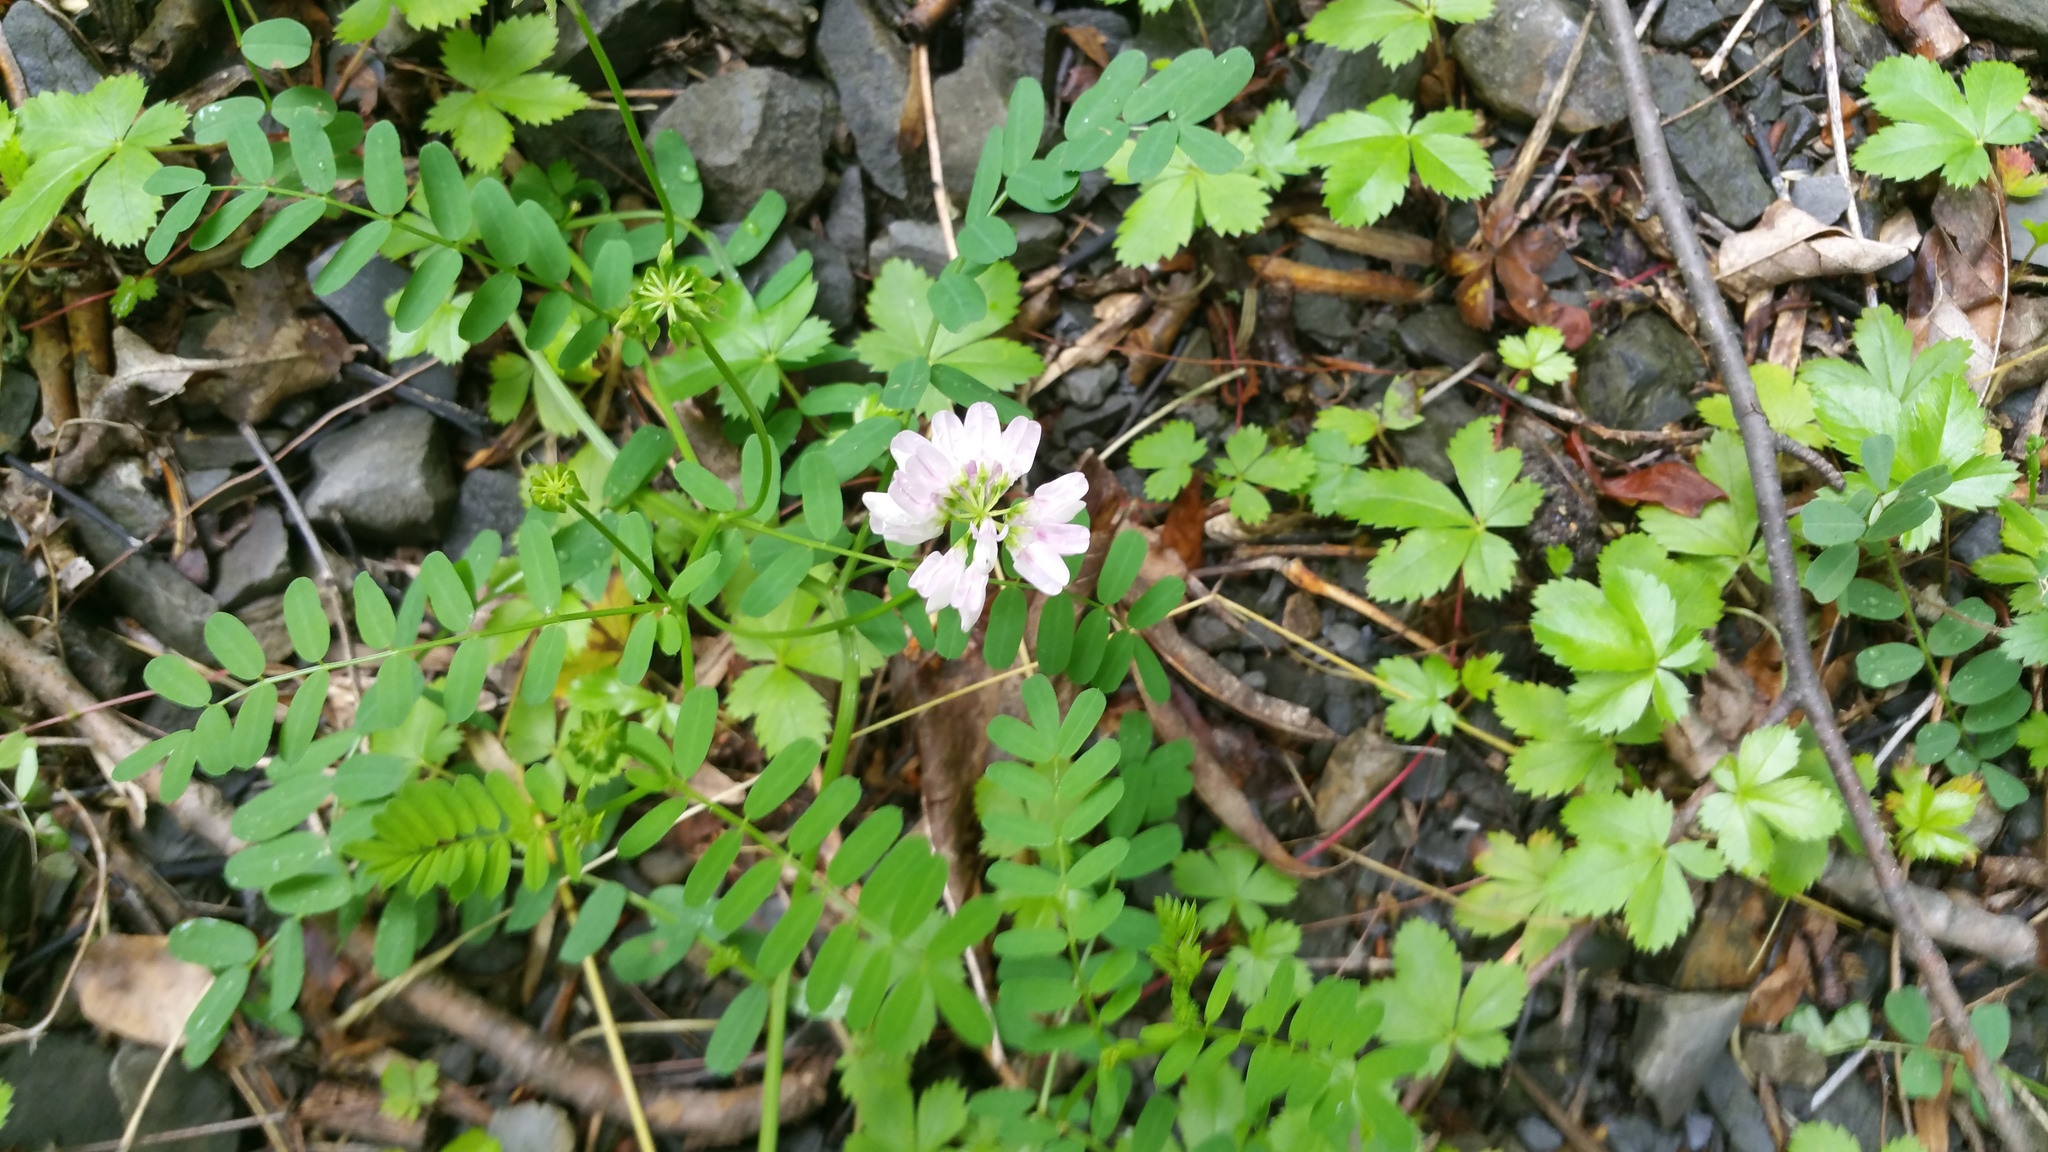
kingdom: Plantae
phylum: Tracheophyta
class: Magnoliopsida
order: Fabales
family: Fabaceae
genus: Coronilla
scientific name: Coronilla varia
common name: Crownvetch
